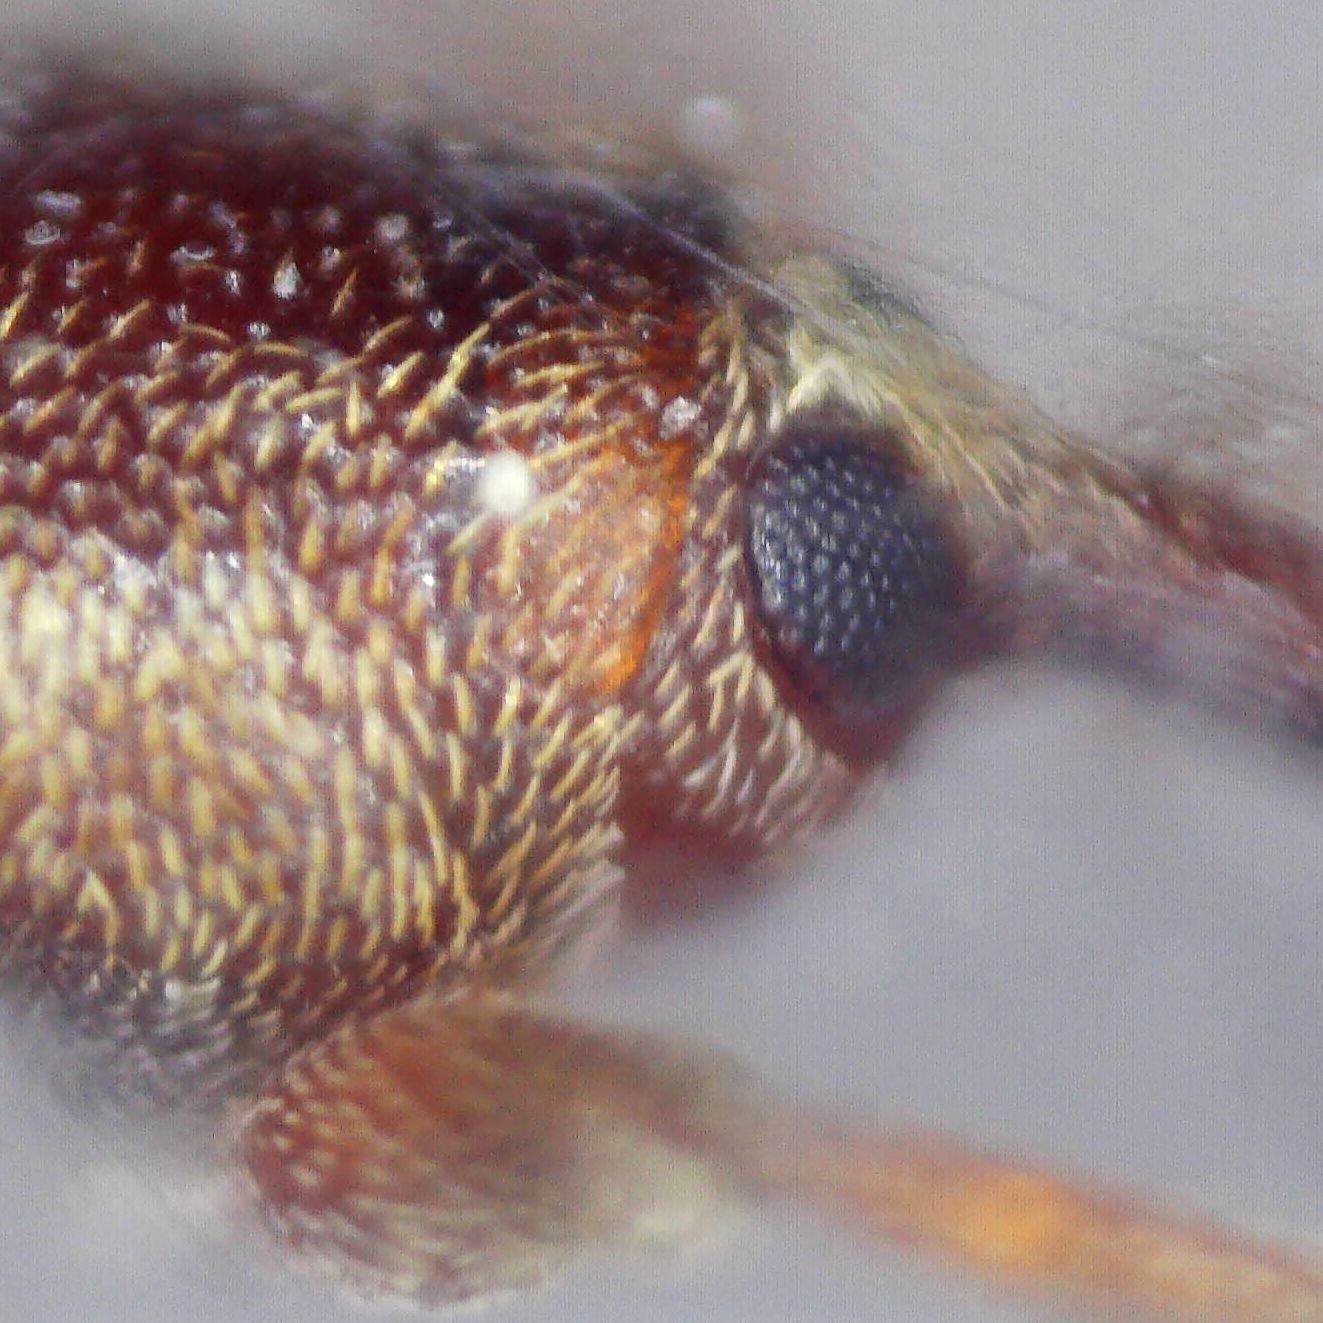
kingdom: Animalia
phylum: Arthropoda
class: Insecta
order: Coleoptera
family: Curculionidae
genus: Dorytomus
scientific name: Dorytomus rufatus
